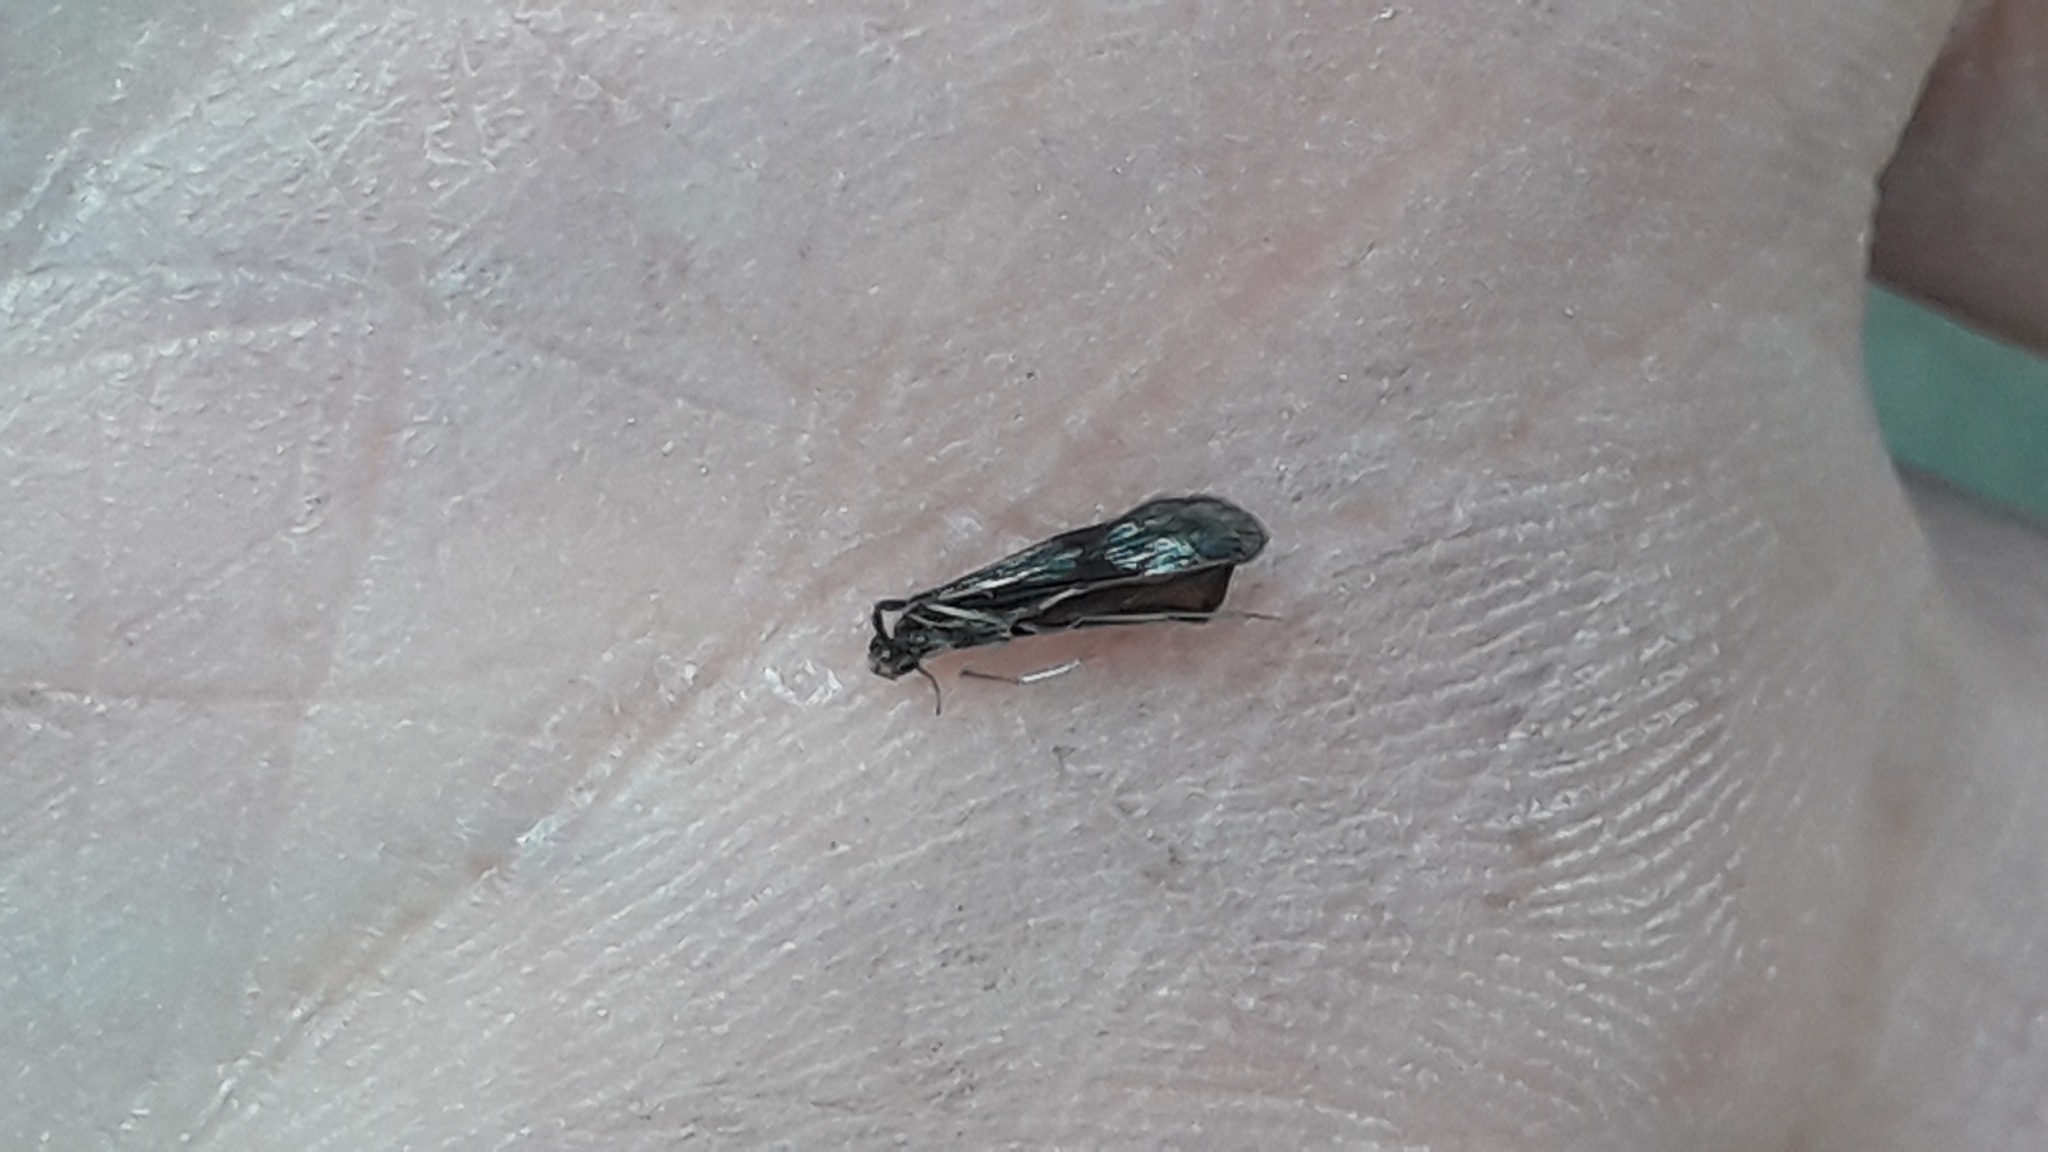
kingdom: Animalia
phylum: Arthropoda
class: Insecta
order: Trichoptera
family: Leptoceridae
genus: Mystacides
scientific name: Mystacides azureus
